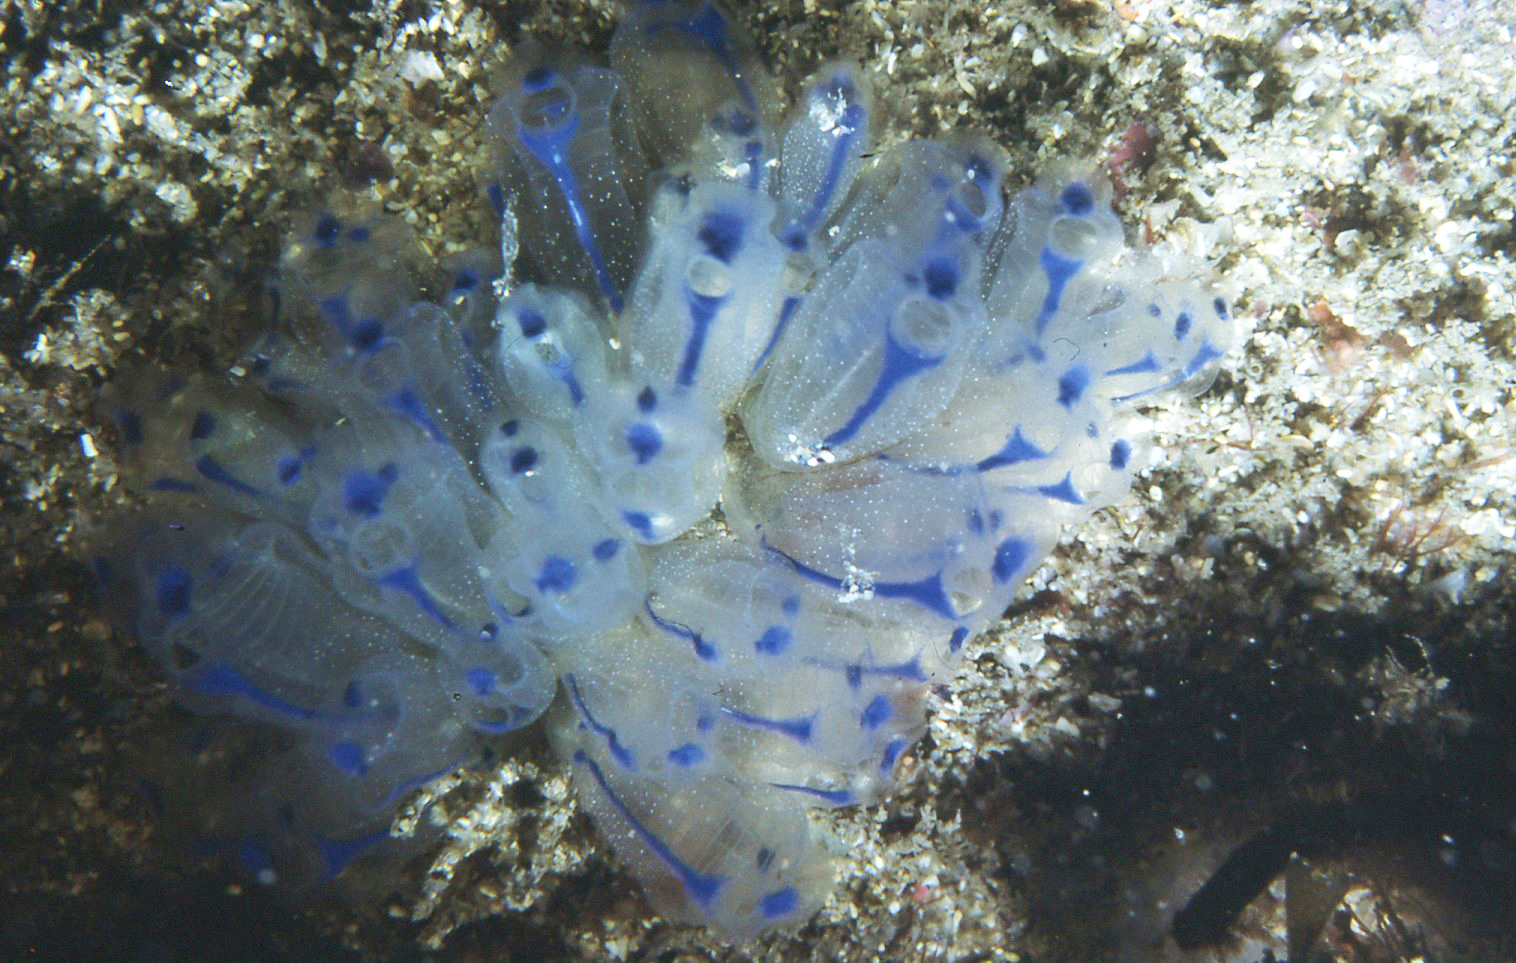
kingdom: Animalia
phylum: Chordata
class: Ascidiacea
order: Aplousobranchia
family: Clavelinidae
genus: Clavelina
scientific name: Clavelina australis
